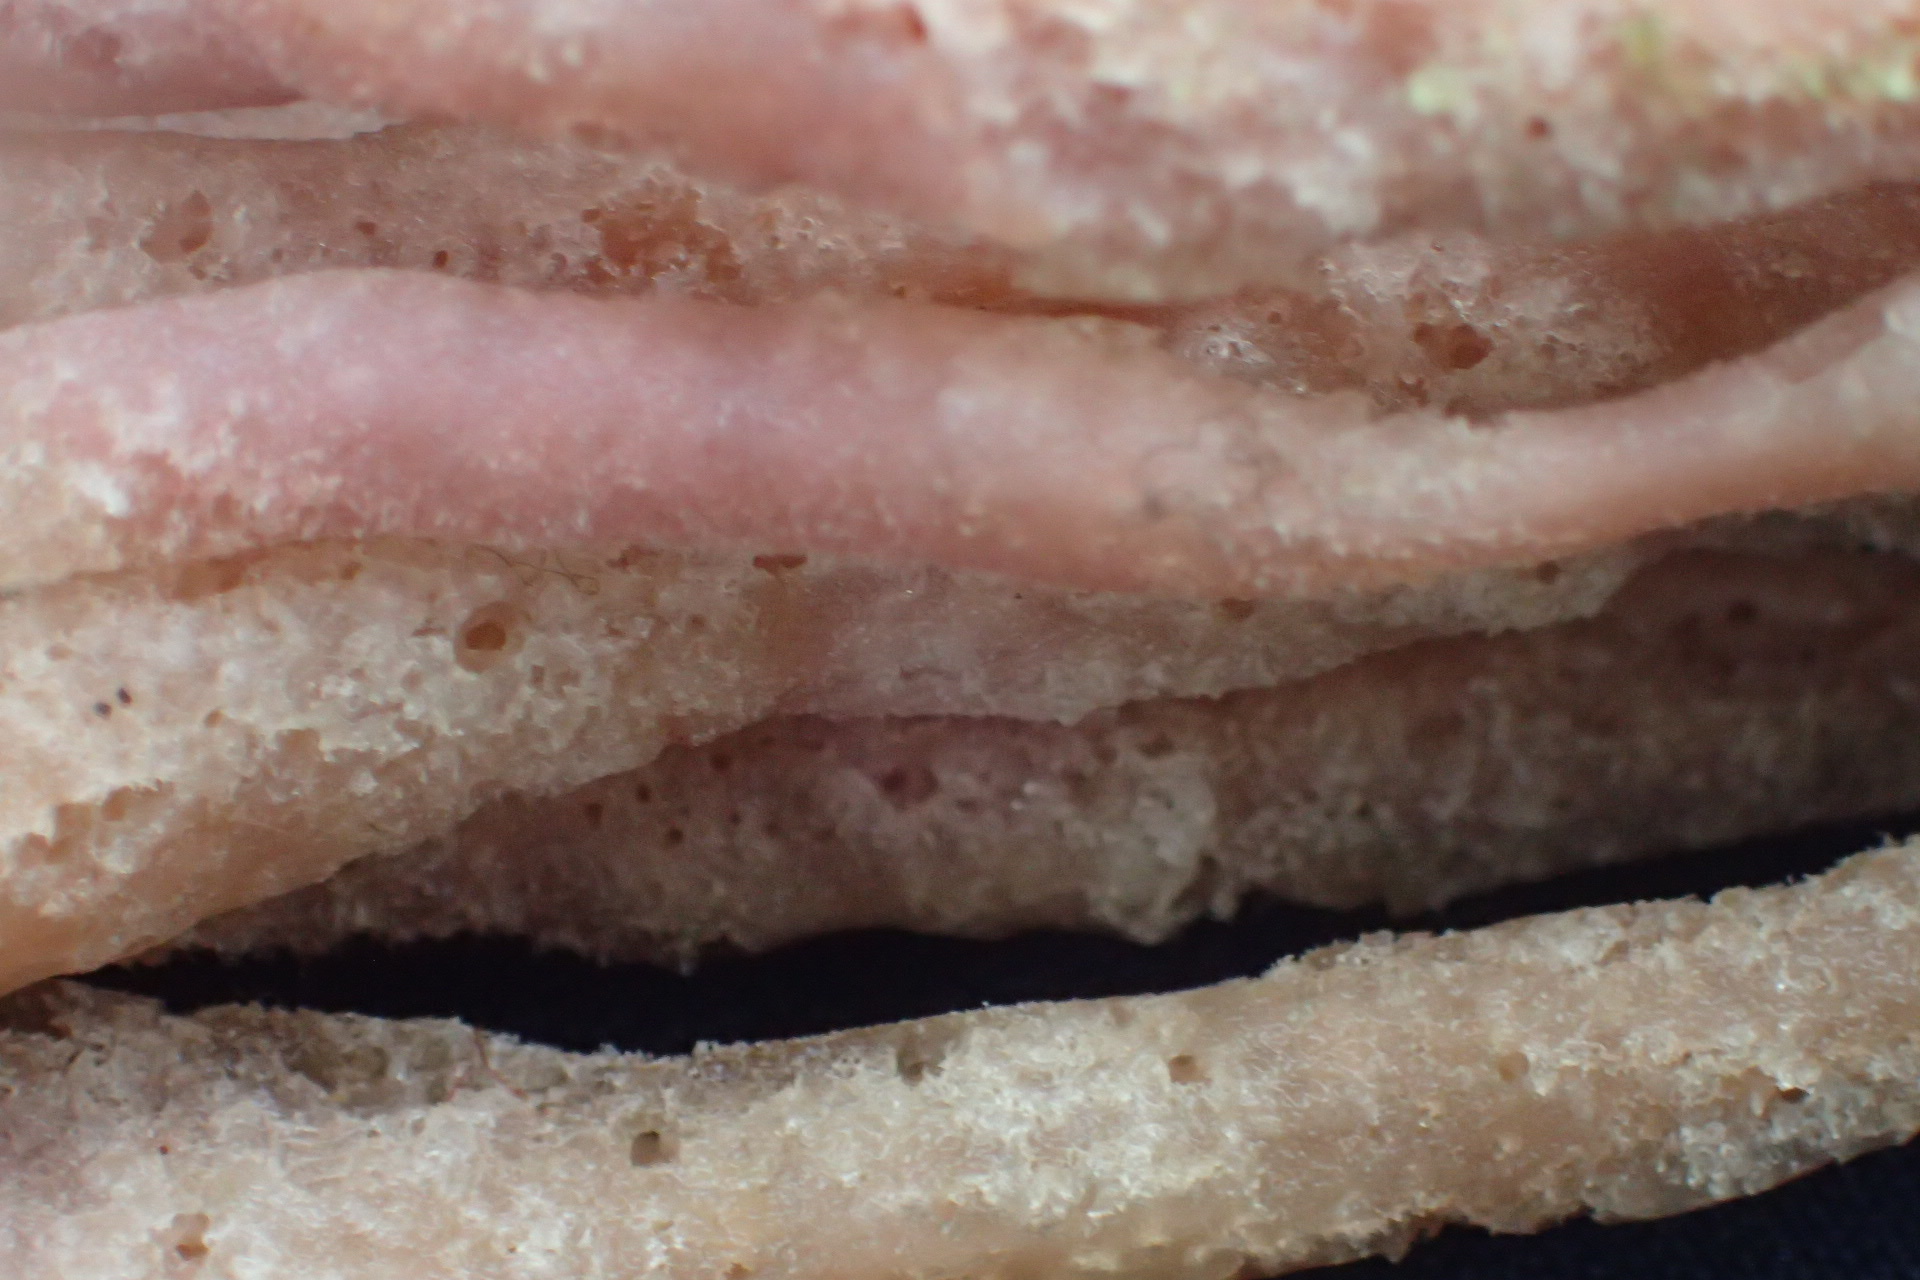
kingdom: Animalia
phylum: Porifera
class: Demospongiae
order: Haplosclerida
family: Chalinidae
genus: Haliclona
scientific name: Haliclona oculata
